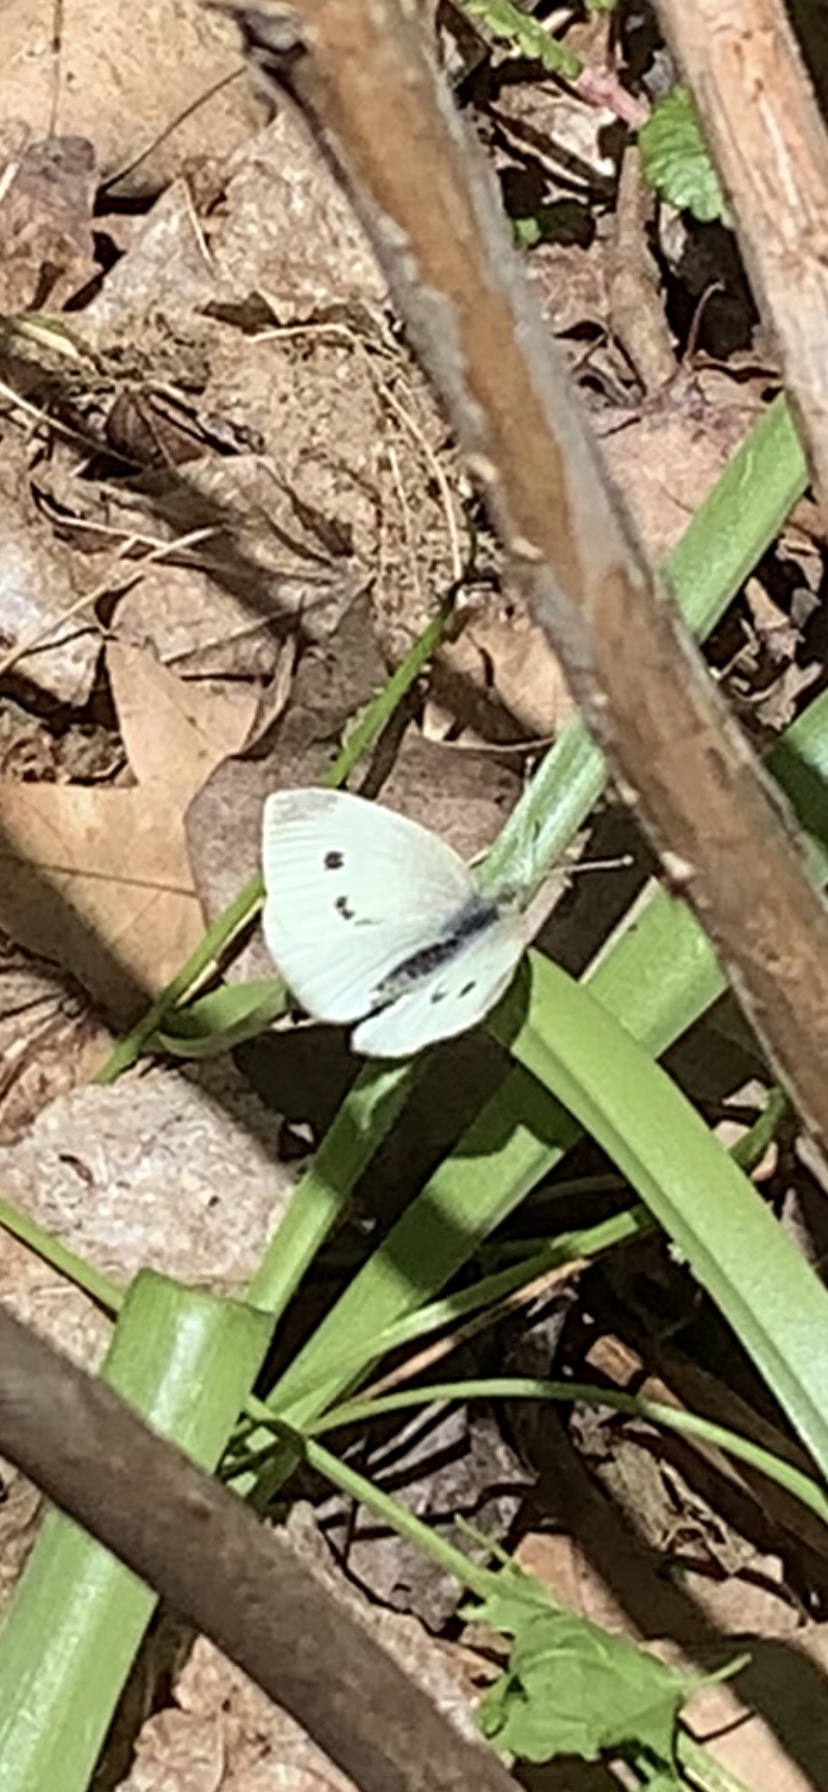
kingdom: Animalia
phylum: Arthropoda
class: Insecta
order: Lepidoptera
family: Pieridae
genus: Pieris
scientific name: Pieris rapae
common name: Small white
